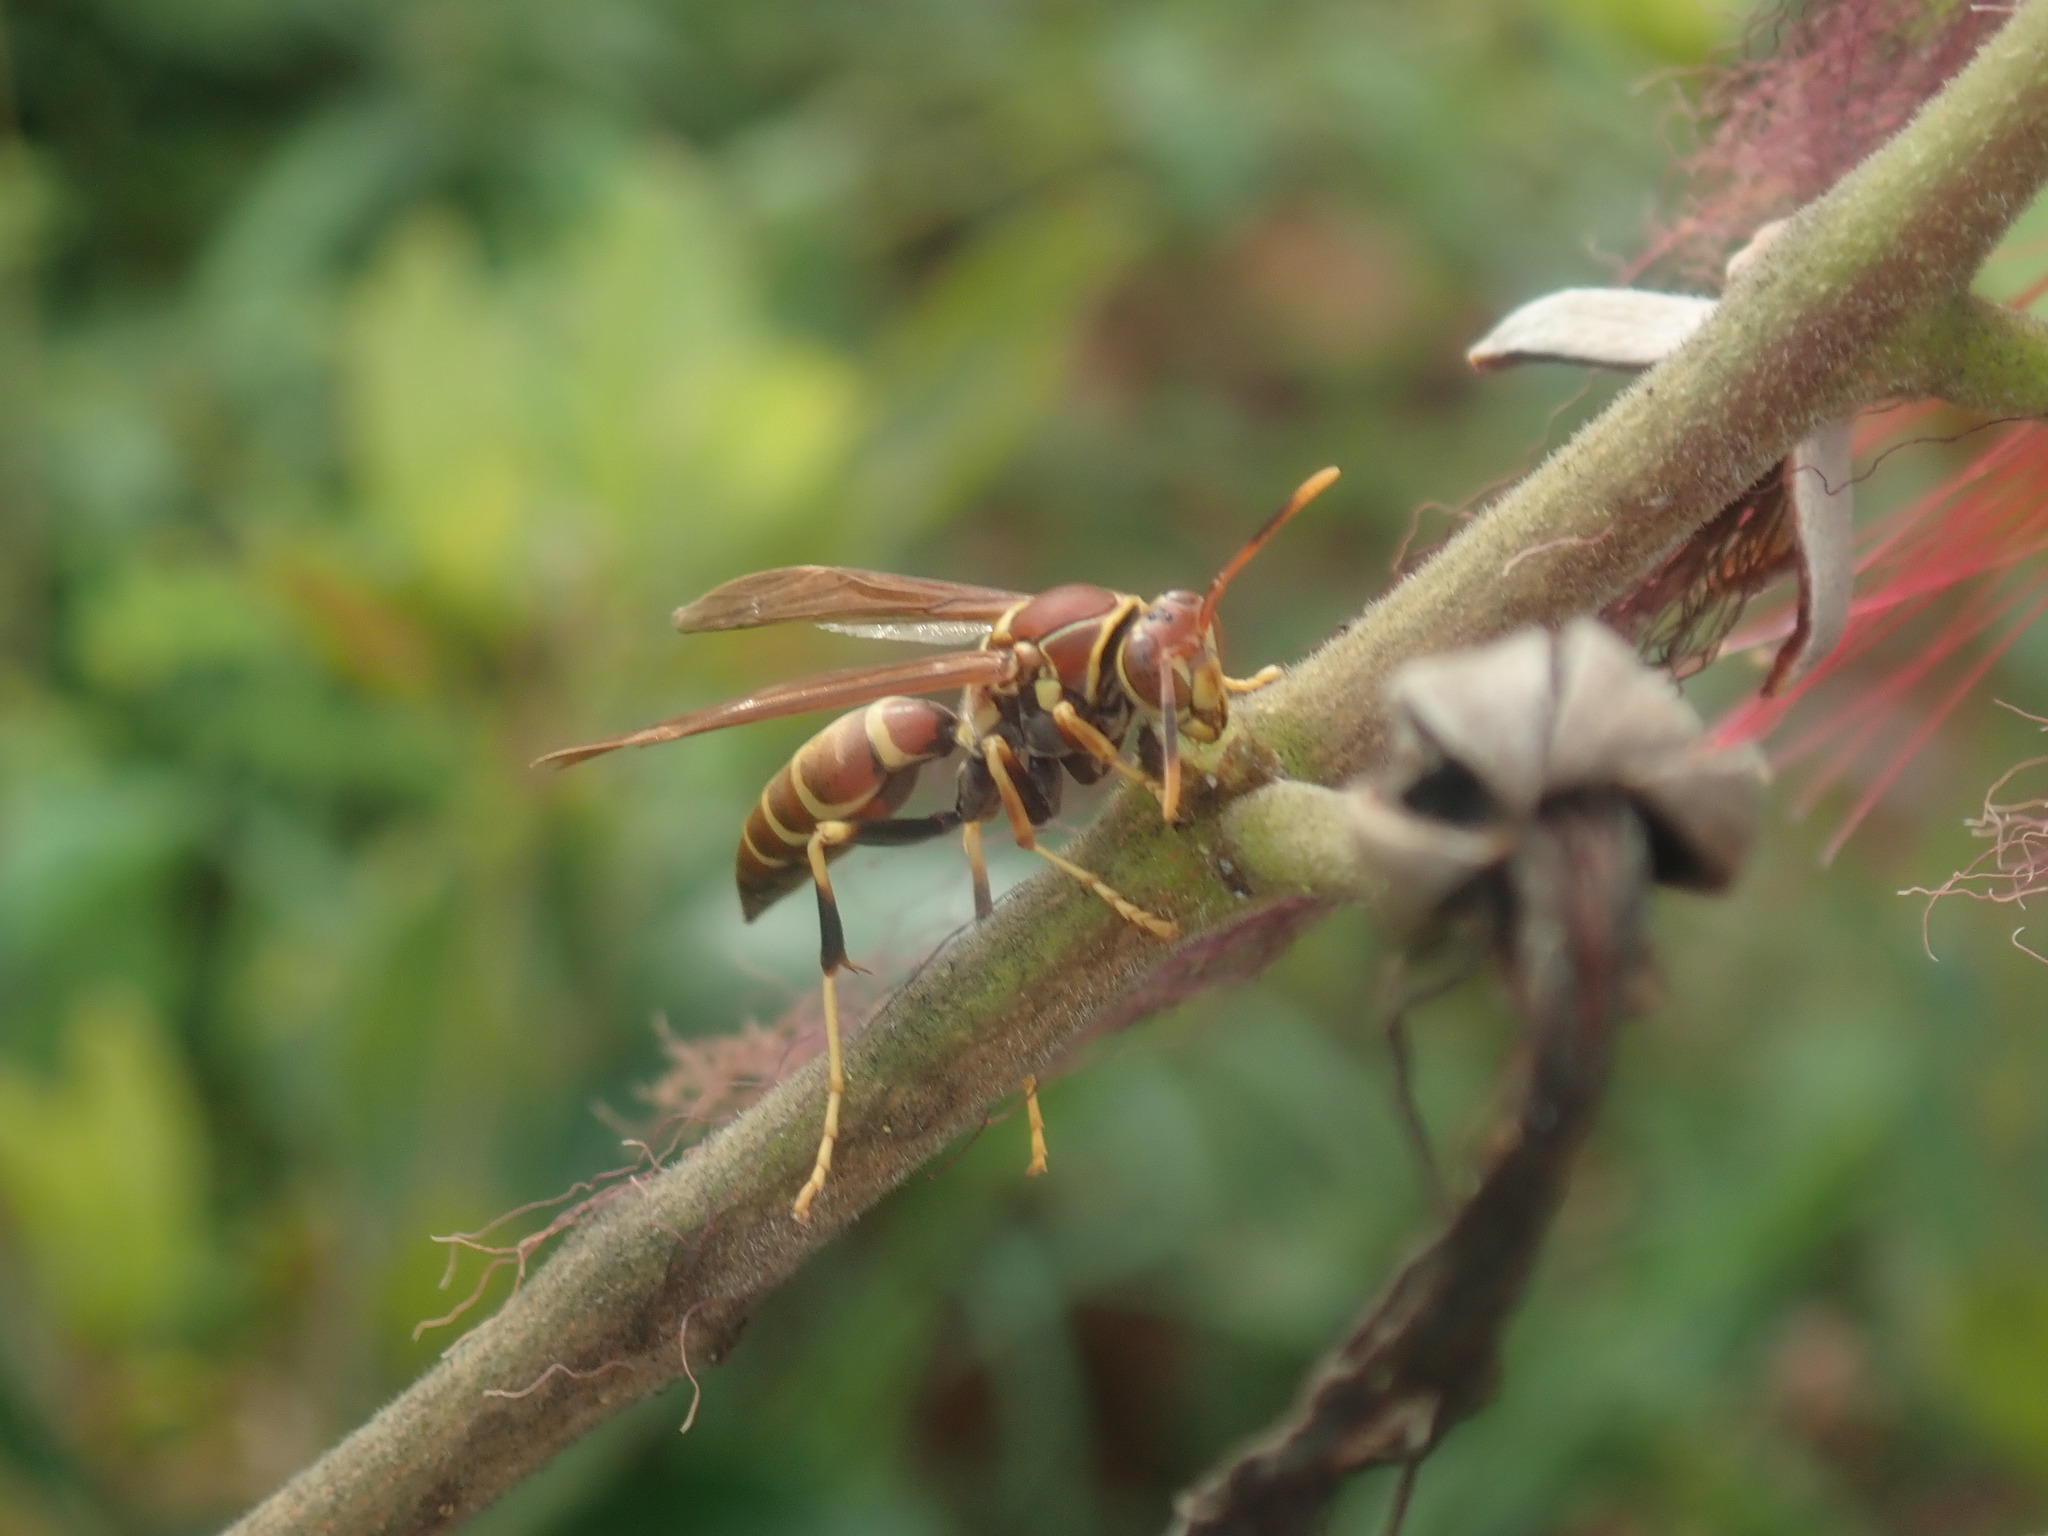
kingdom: Animalia
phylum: Arthropoda
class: Insecta
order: Hymenoptera
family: Eumenidae
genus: Polistes
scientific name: Polistes instabilis
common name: Unstable paper wasp
